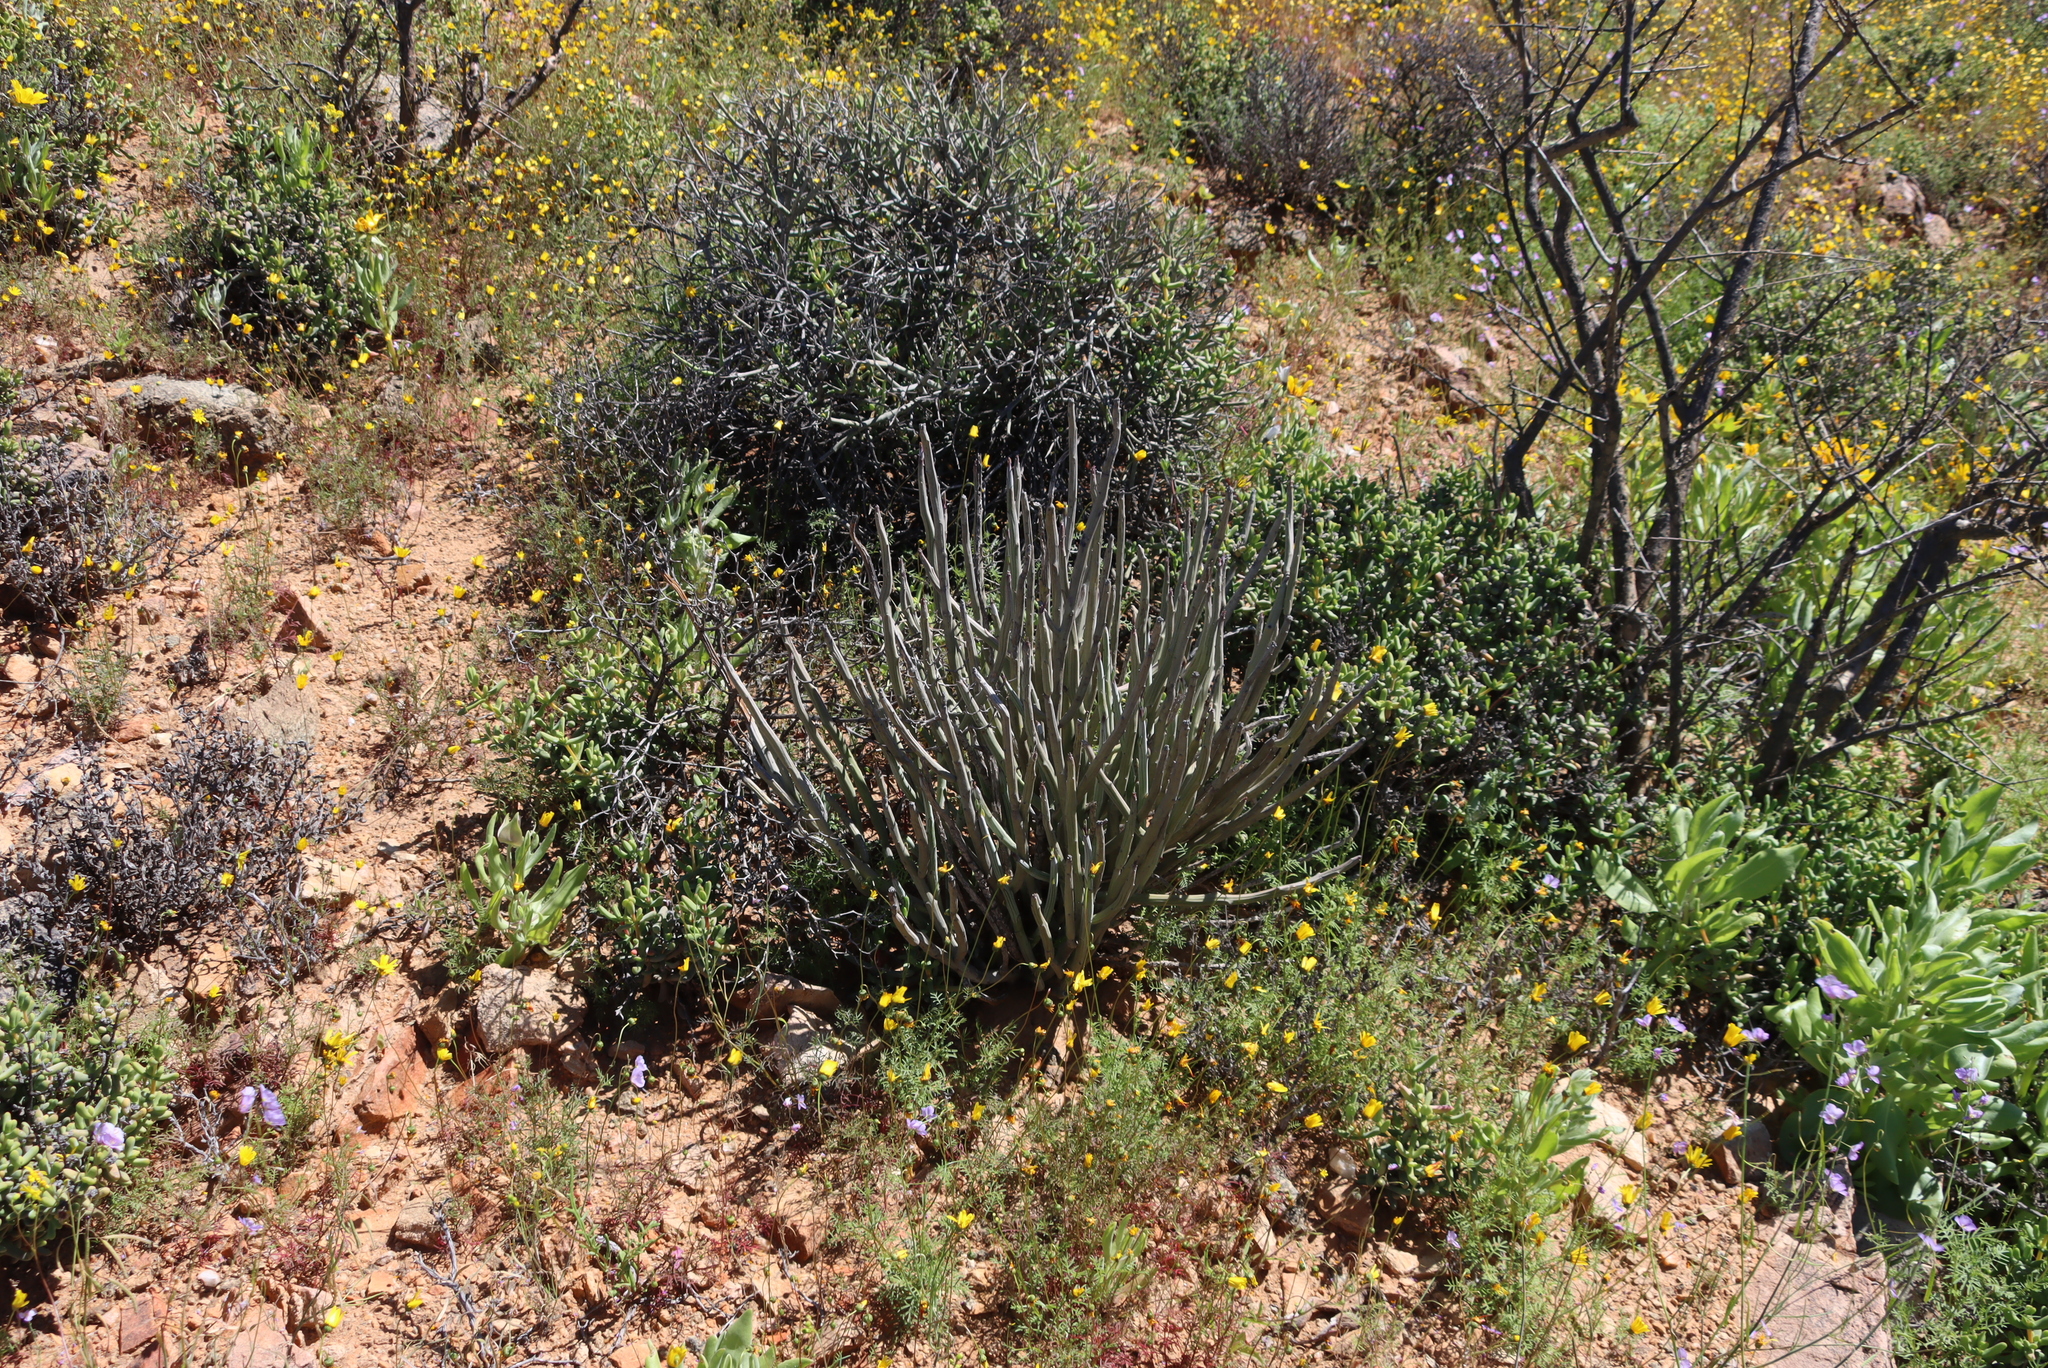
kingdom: Plantae
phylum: Tracheophyta
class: Magnoliopsida
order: Asterales
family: Asteraceae
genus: Curio
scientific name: Curio avasimontanus
